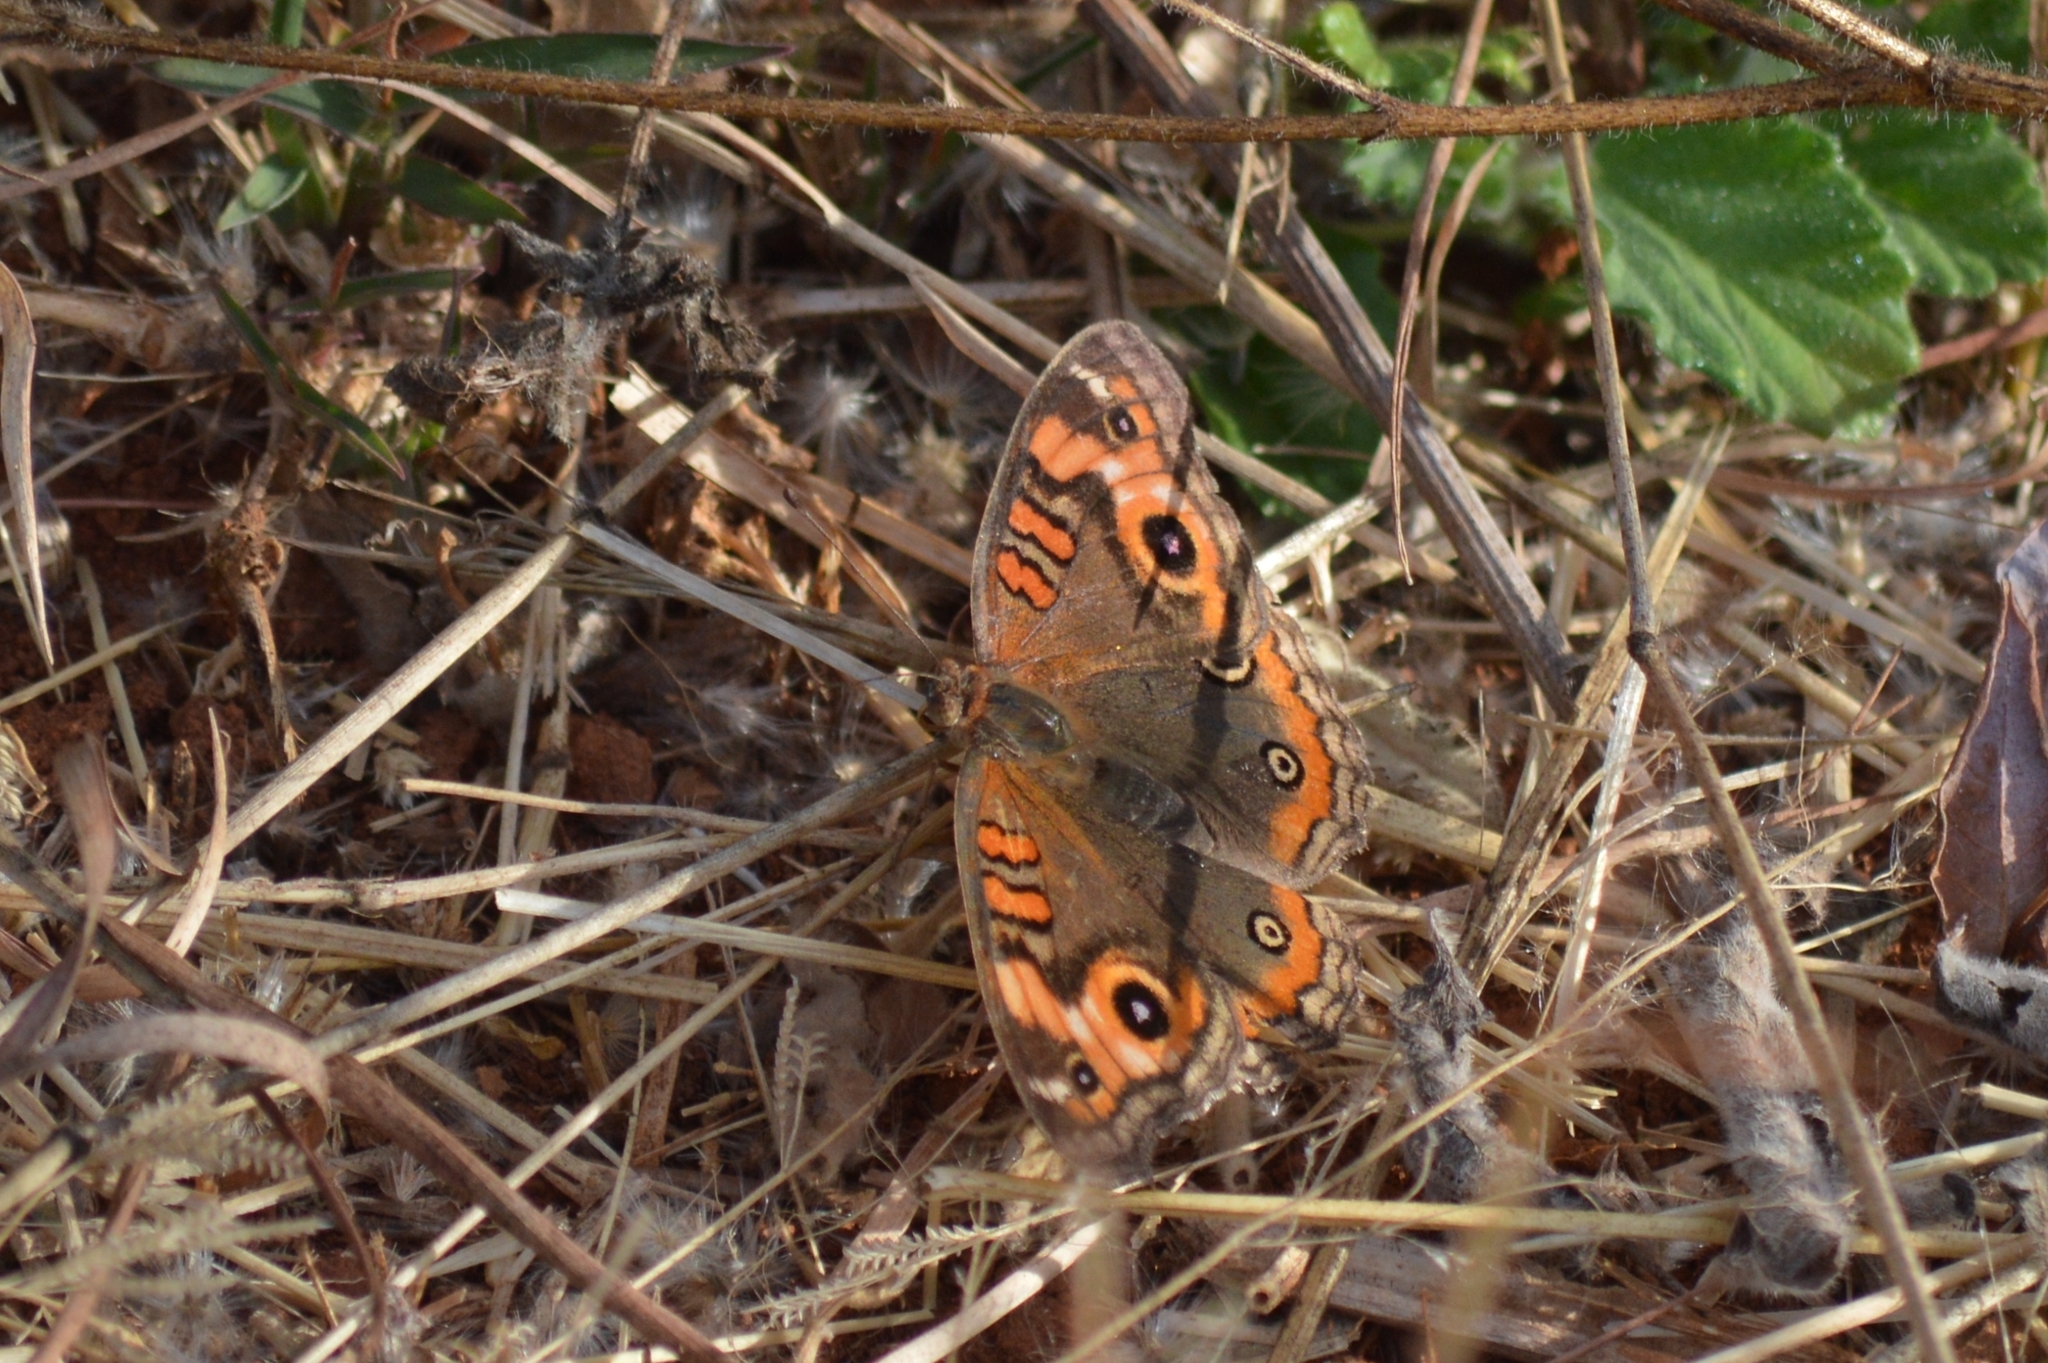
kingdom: Animalia
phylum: Arthropoda
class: Insecta
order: Lepidoptera
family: Nymphalidae
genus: Junonia
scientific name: Junonia evarete
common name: Black mangrove buckeye
